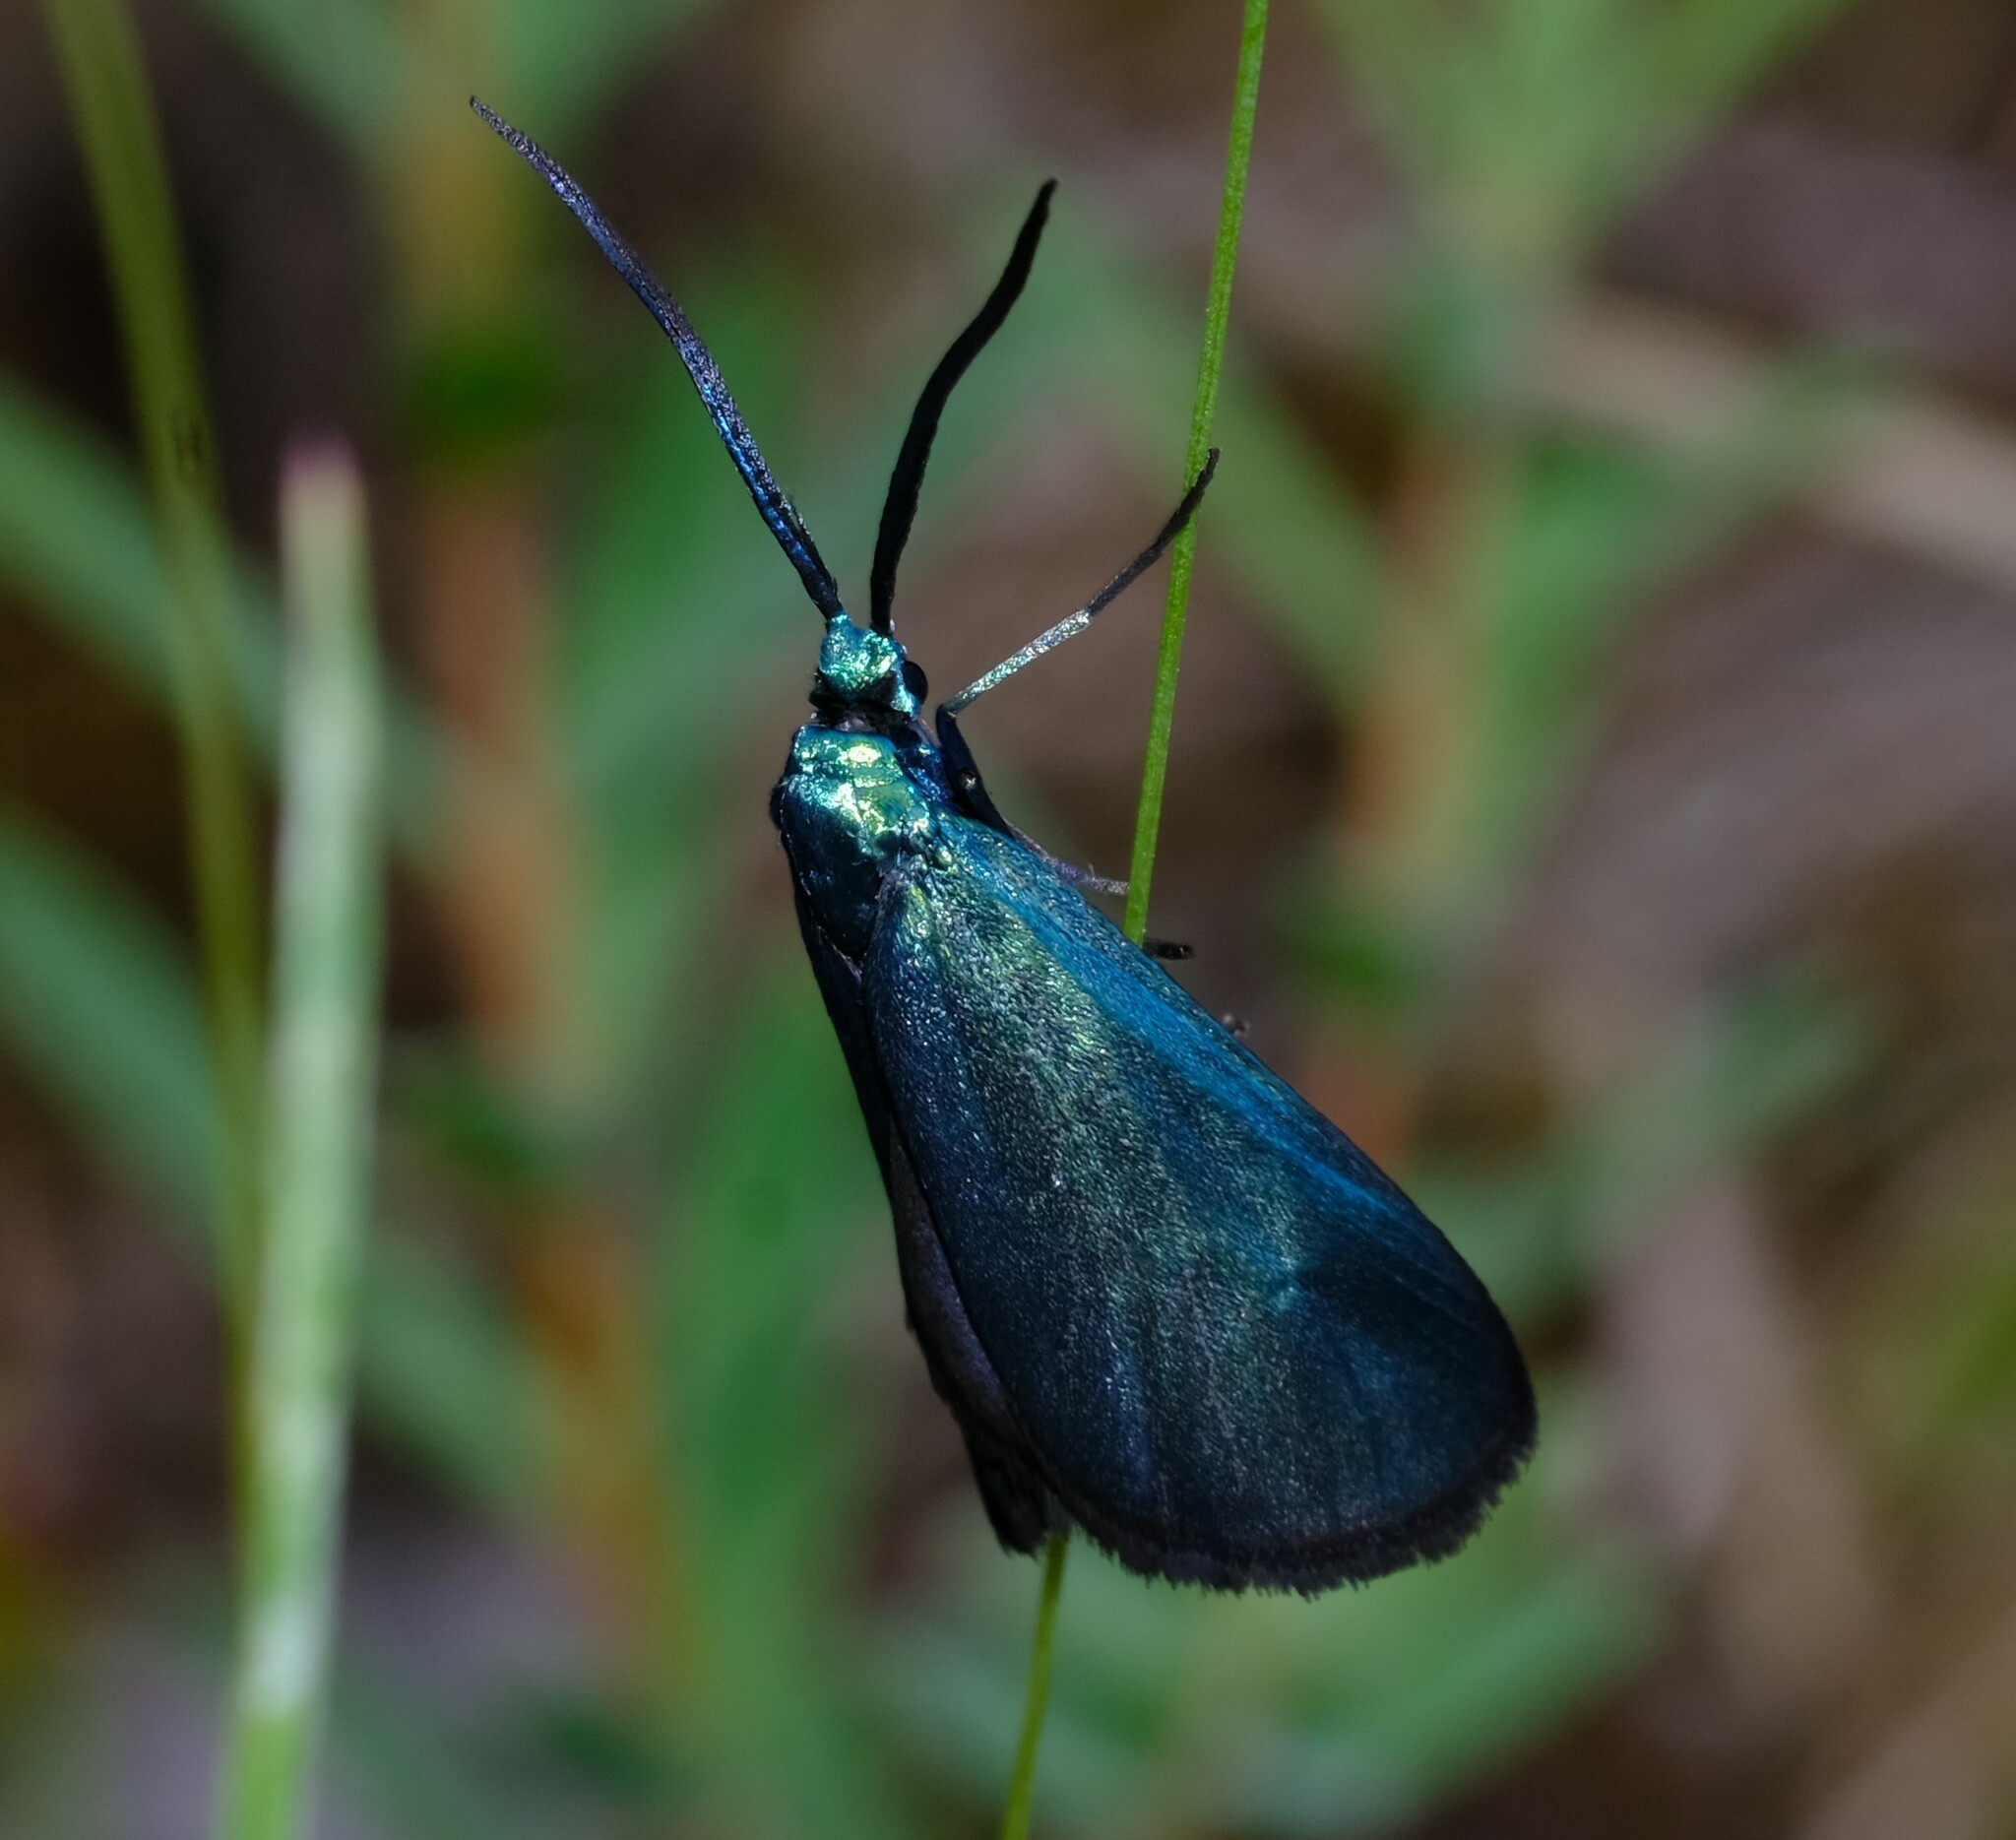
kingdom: Animalia
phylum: Arthropoda
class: Insecta
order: Lepidoptera
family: Zygaenidae
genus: Pollanisus
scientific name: Pollanisus viridipulverulenta
